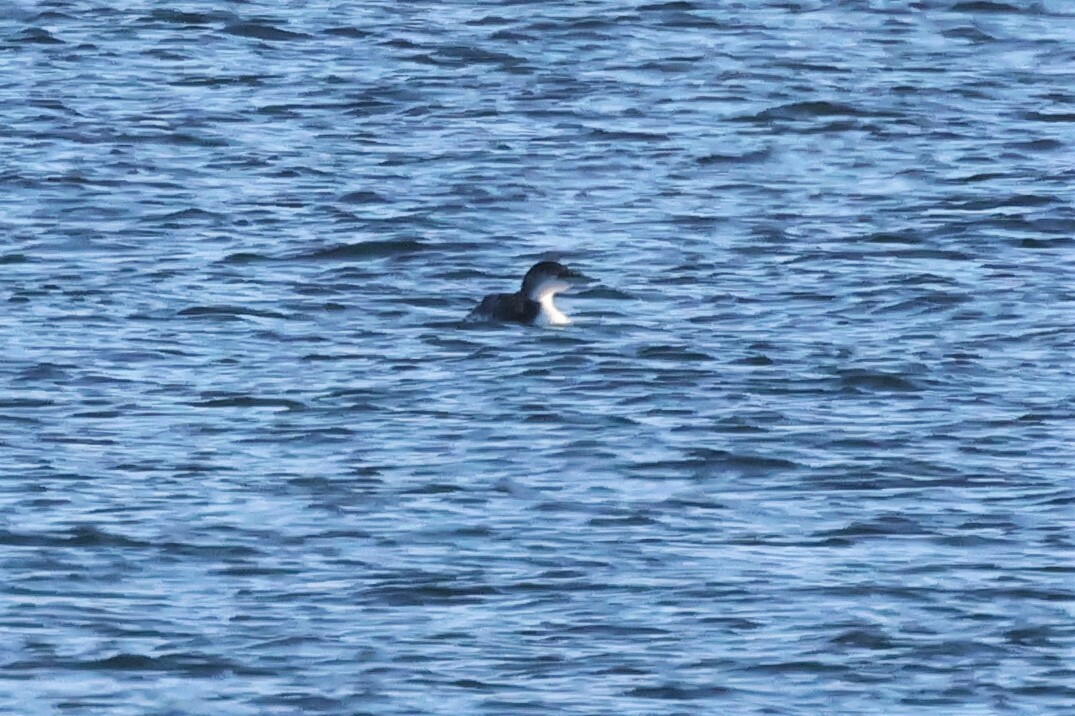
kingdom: Animalia
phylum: Chordata
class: Aves
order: Gaviiformes
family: Gaviidae
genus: Gavia
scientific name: Gavia immer
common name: Common loon
